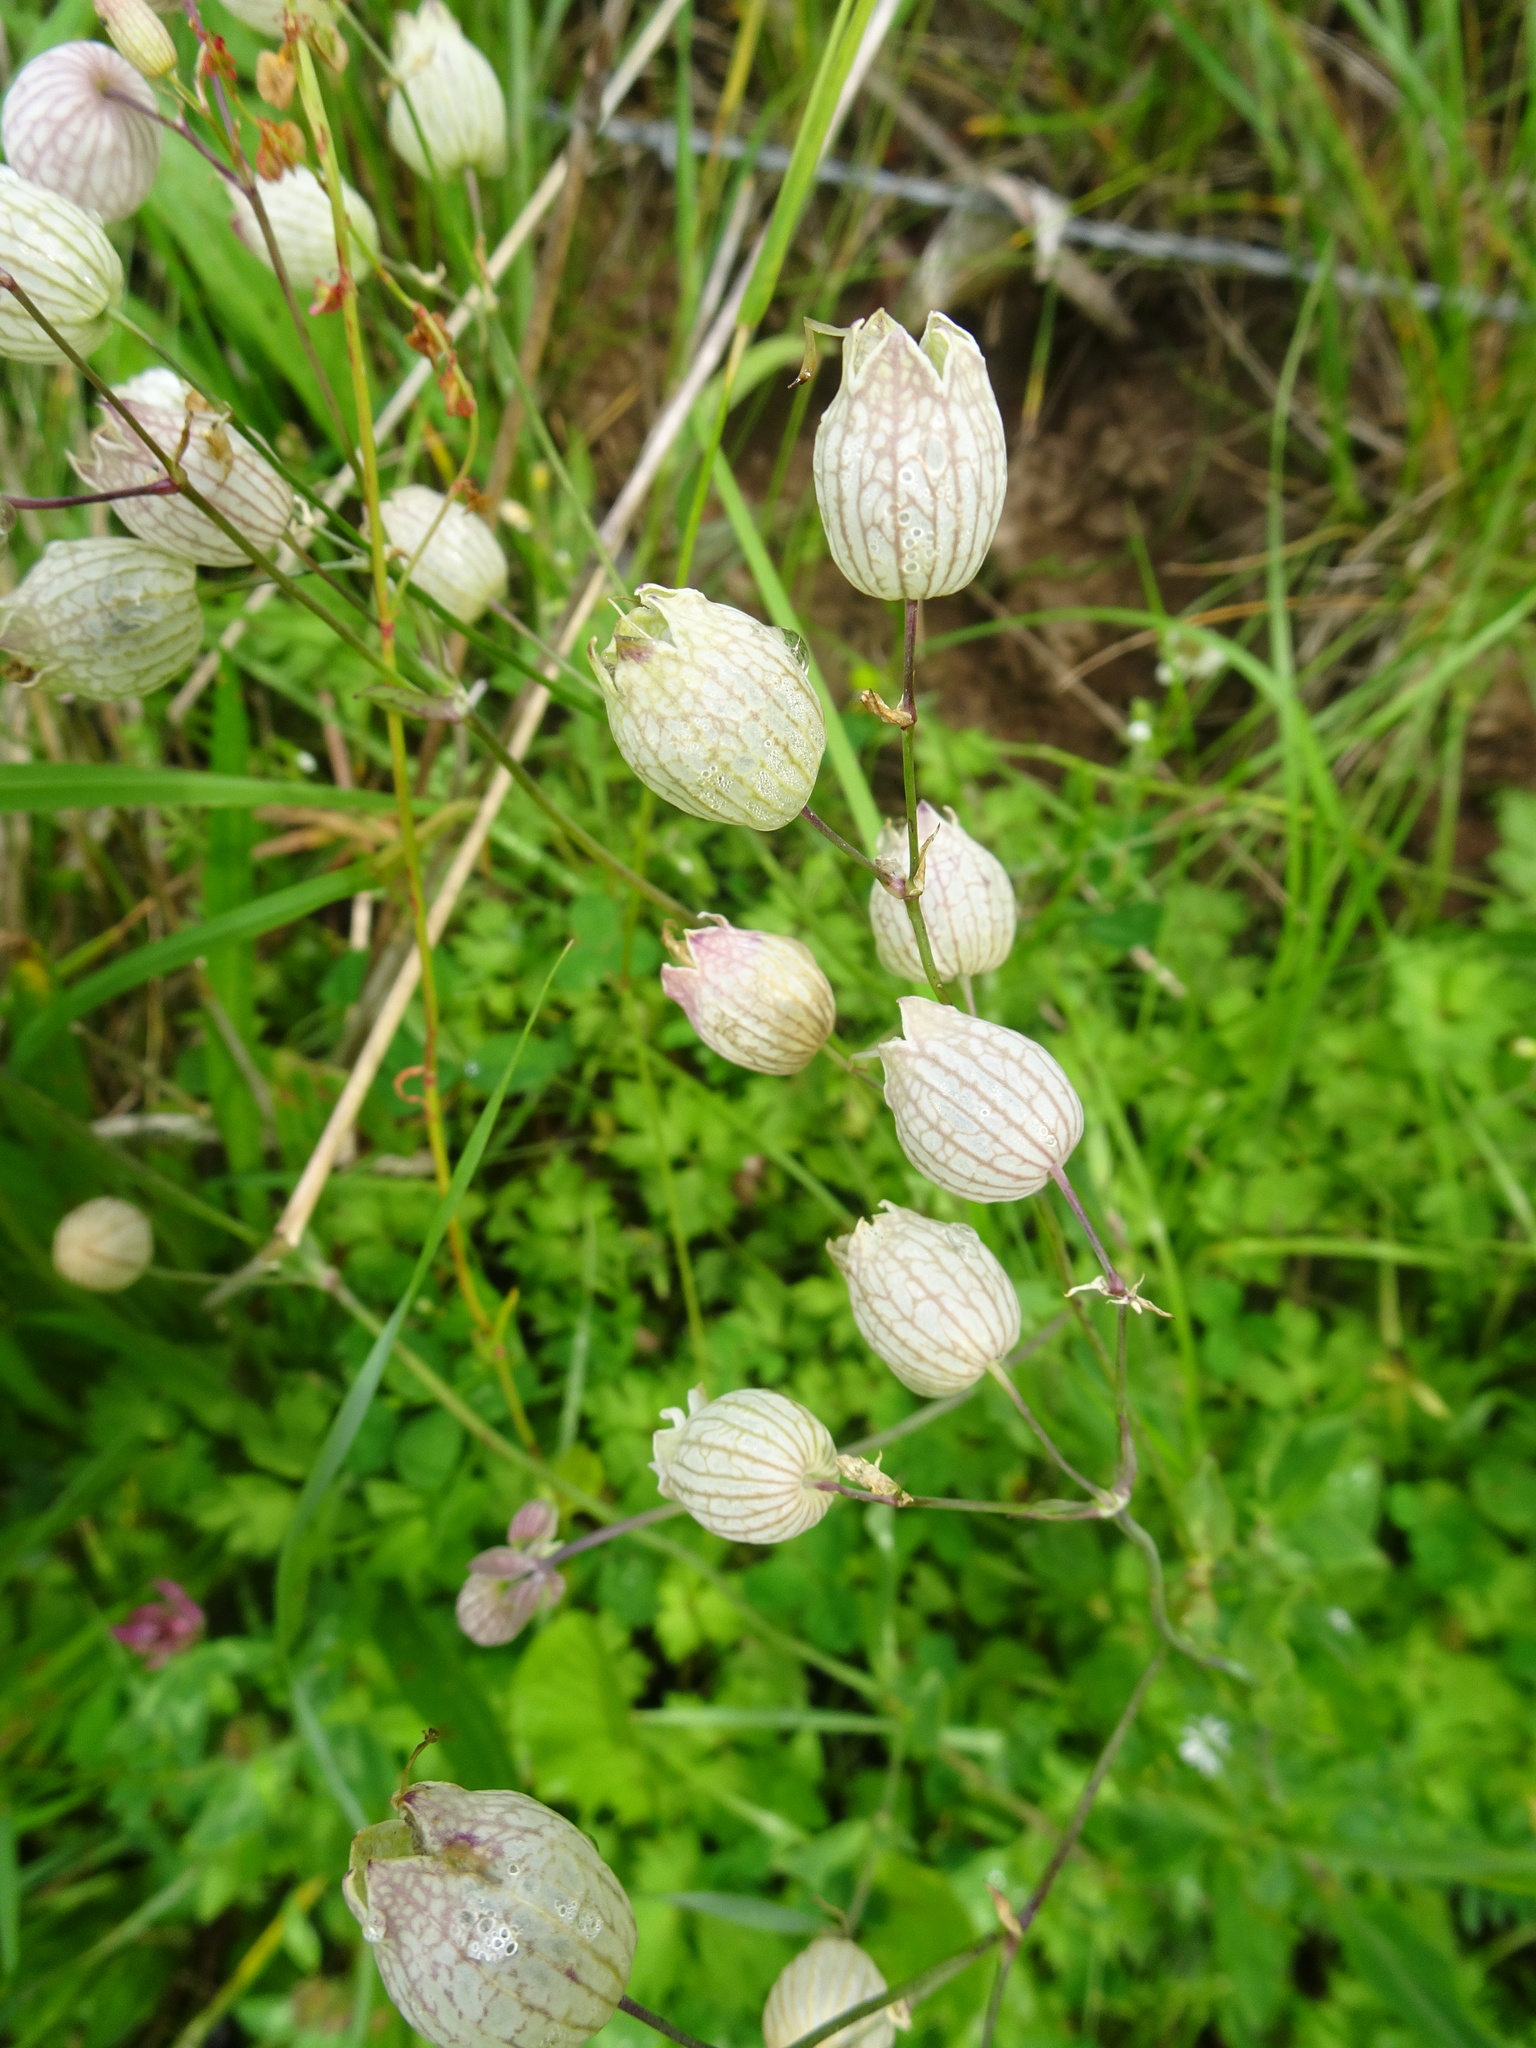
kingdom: Plantae
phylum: Tracheophyta
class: Magnoliopsida
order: Caryophyllales
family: Caryophyllaceae
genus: Silene
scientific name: Silene vulgaris
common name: Bladder campion
